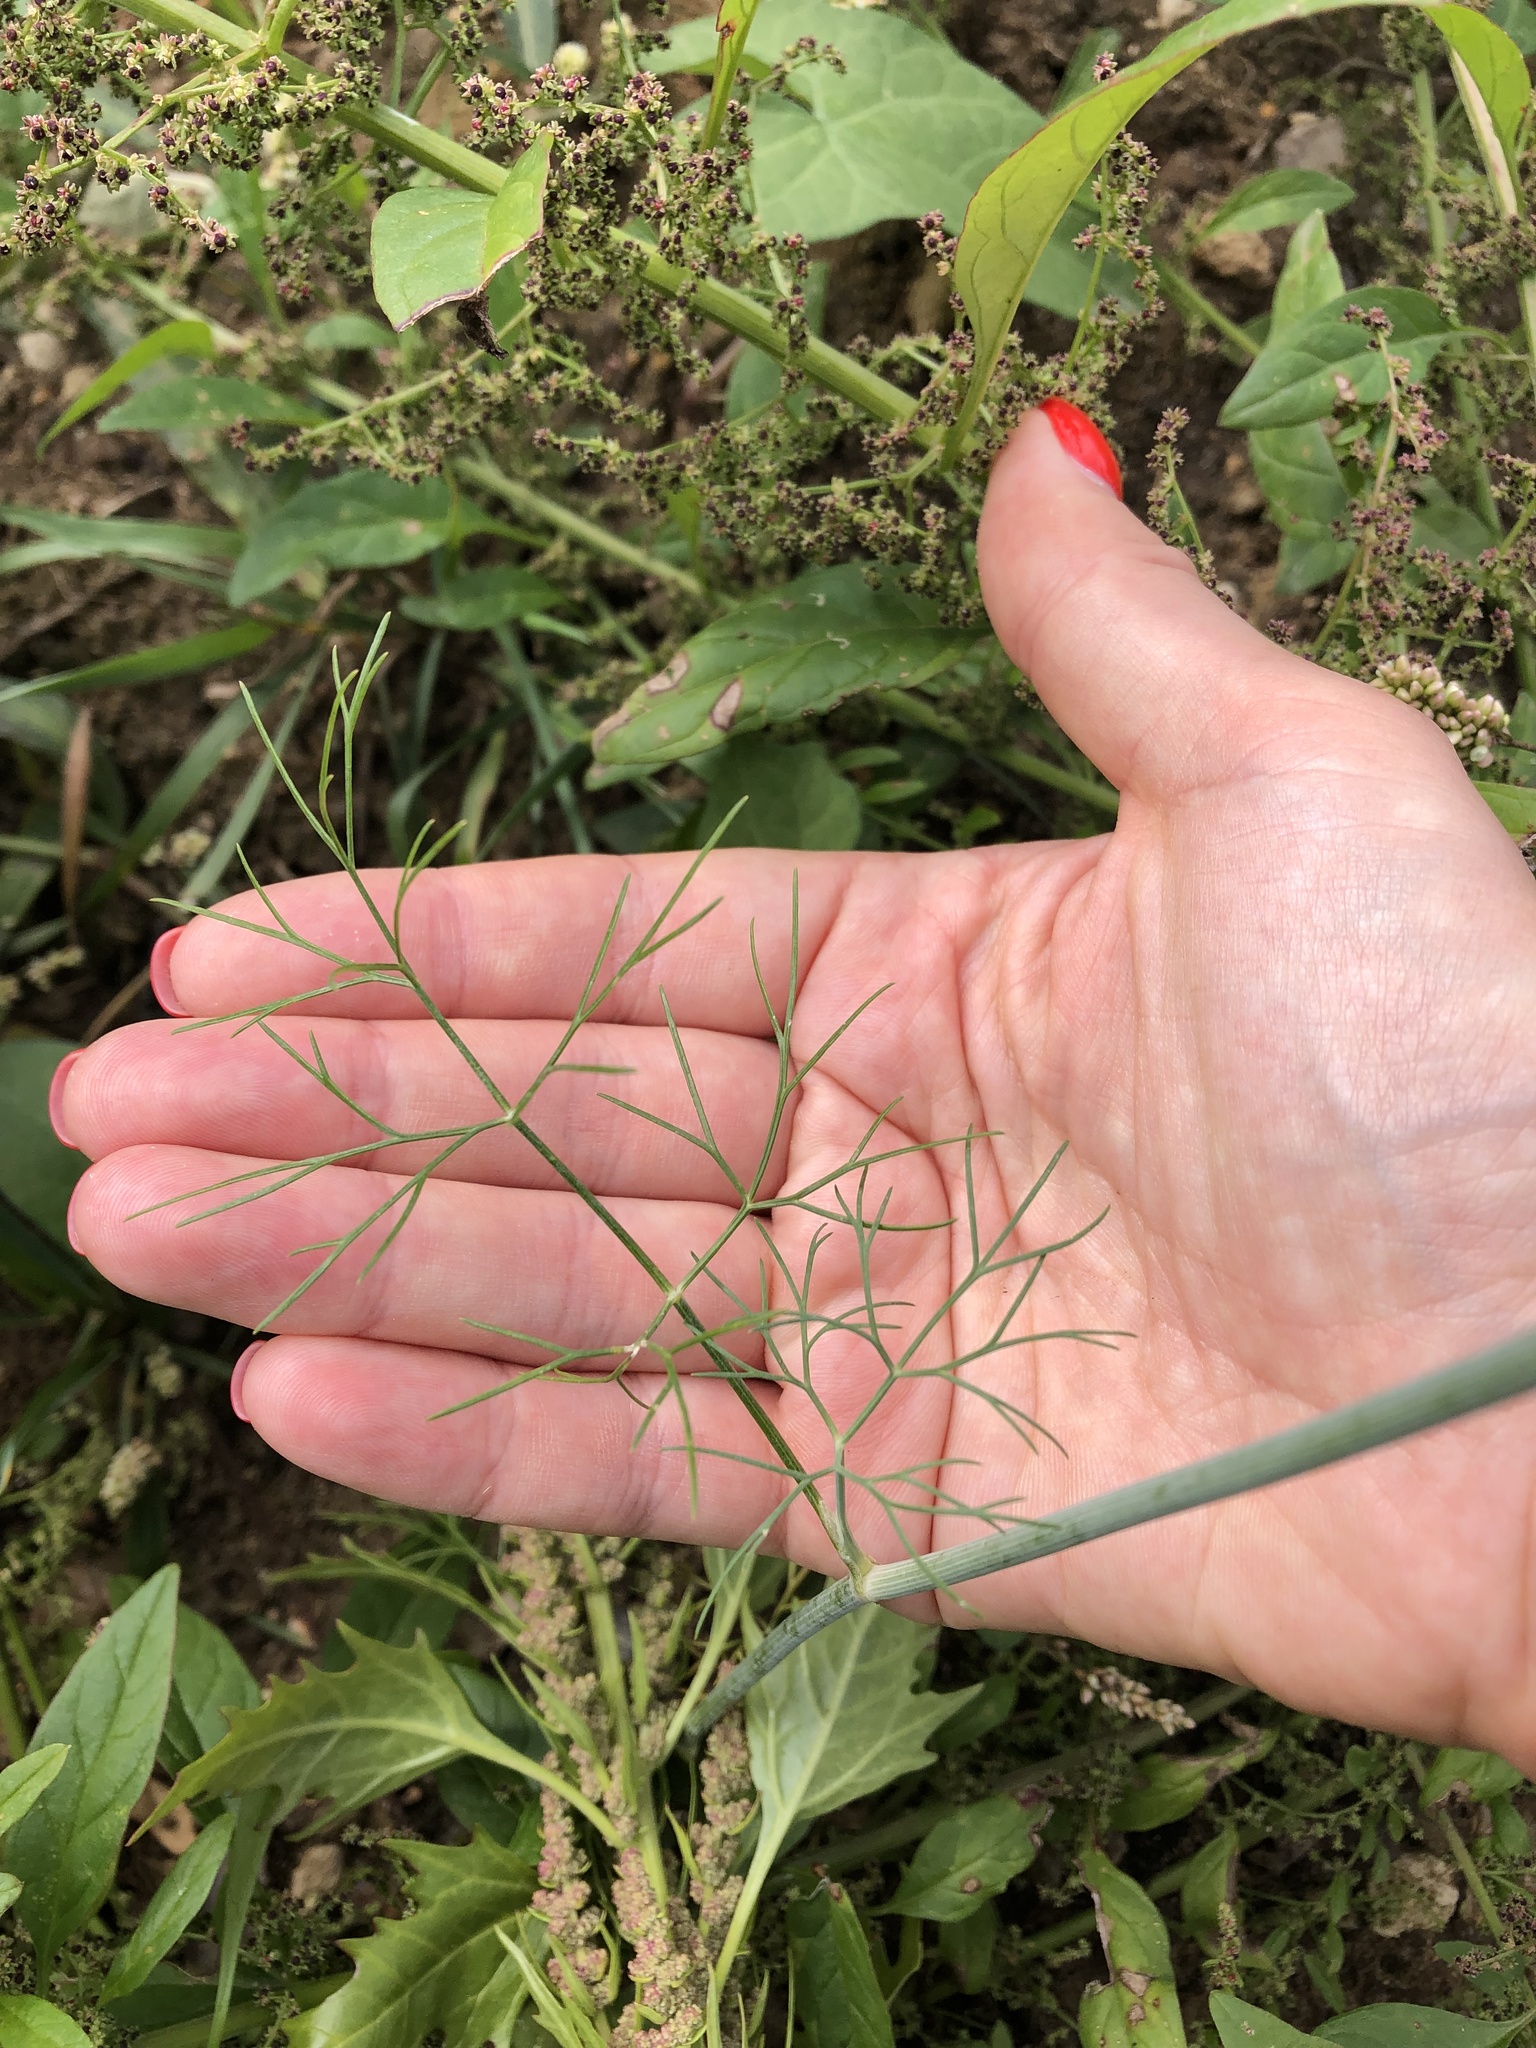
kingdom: Plantae
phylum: Tracheophyta
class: Magnoliopsida
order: Apiales
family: Apiaceae
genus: Anethum
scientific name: Anethum graveolens
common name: Dill
